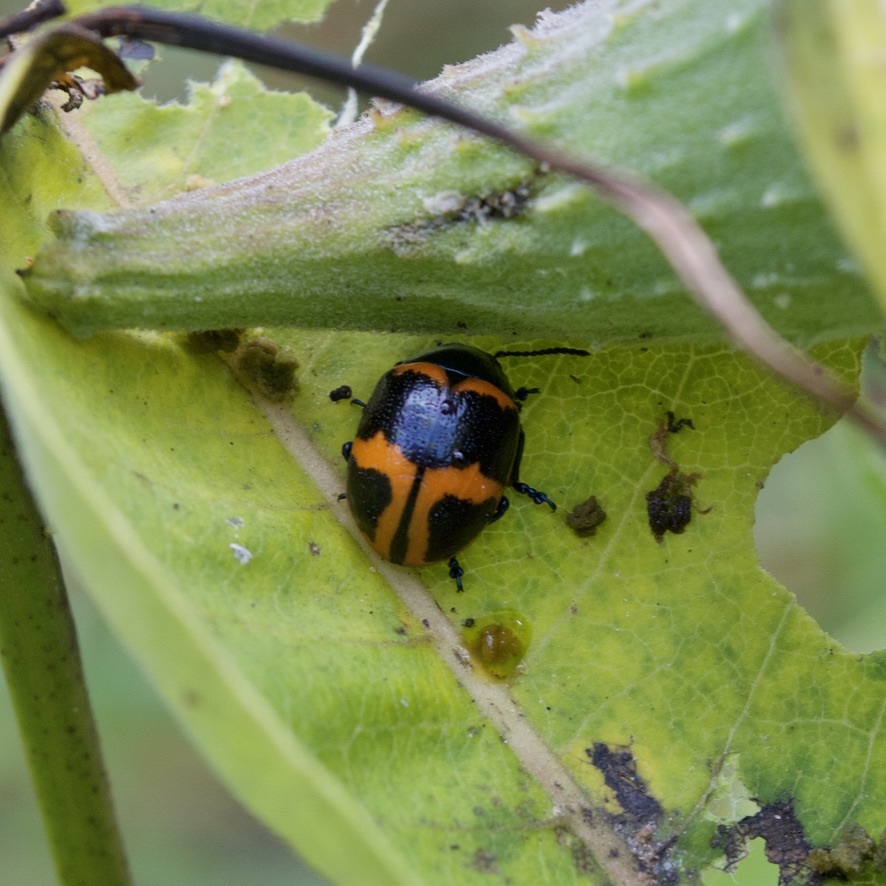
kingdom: Animalia
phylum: Arthropoda
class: Insecta
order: Coleoptera
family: Chrysomelidae
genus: Labidomera
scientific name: Labidomera clivicollis
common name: Swamp milkweed leaf beetle
